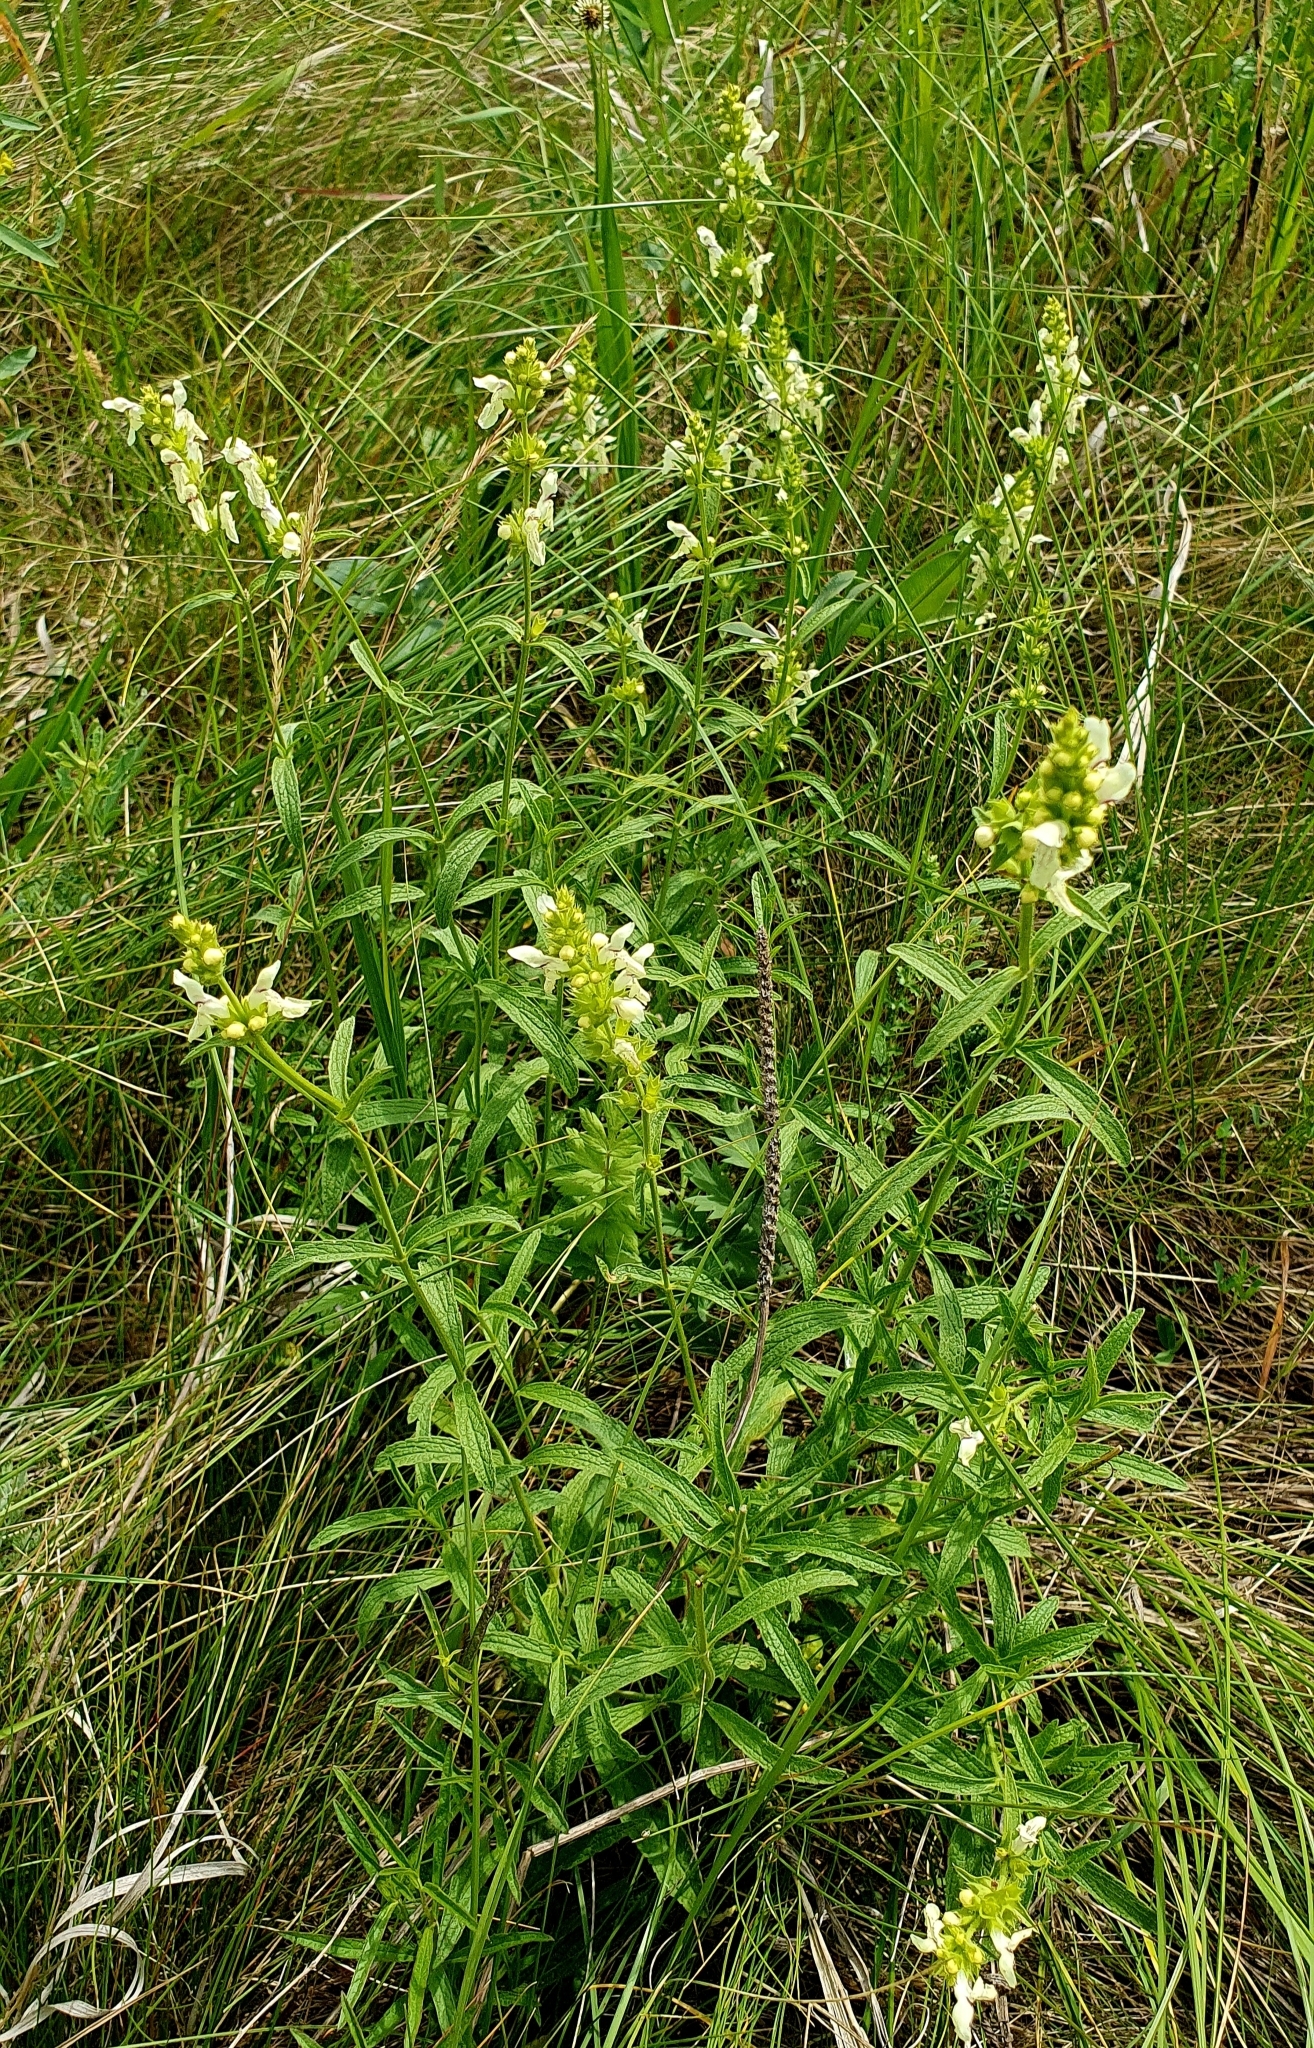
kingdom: Plantae
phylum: Tracheophyta
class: Magnoliopsida
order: Lamiales
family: Lamiaceae
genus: Stachys
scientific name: Stachys recta
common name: Perennial yellow-woundwort
